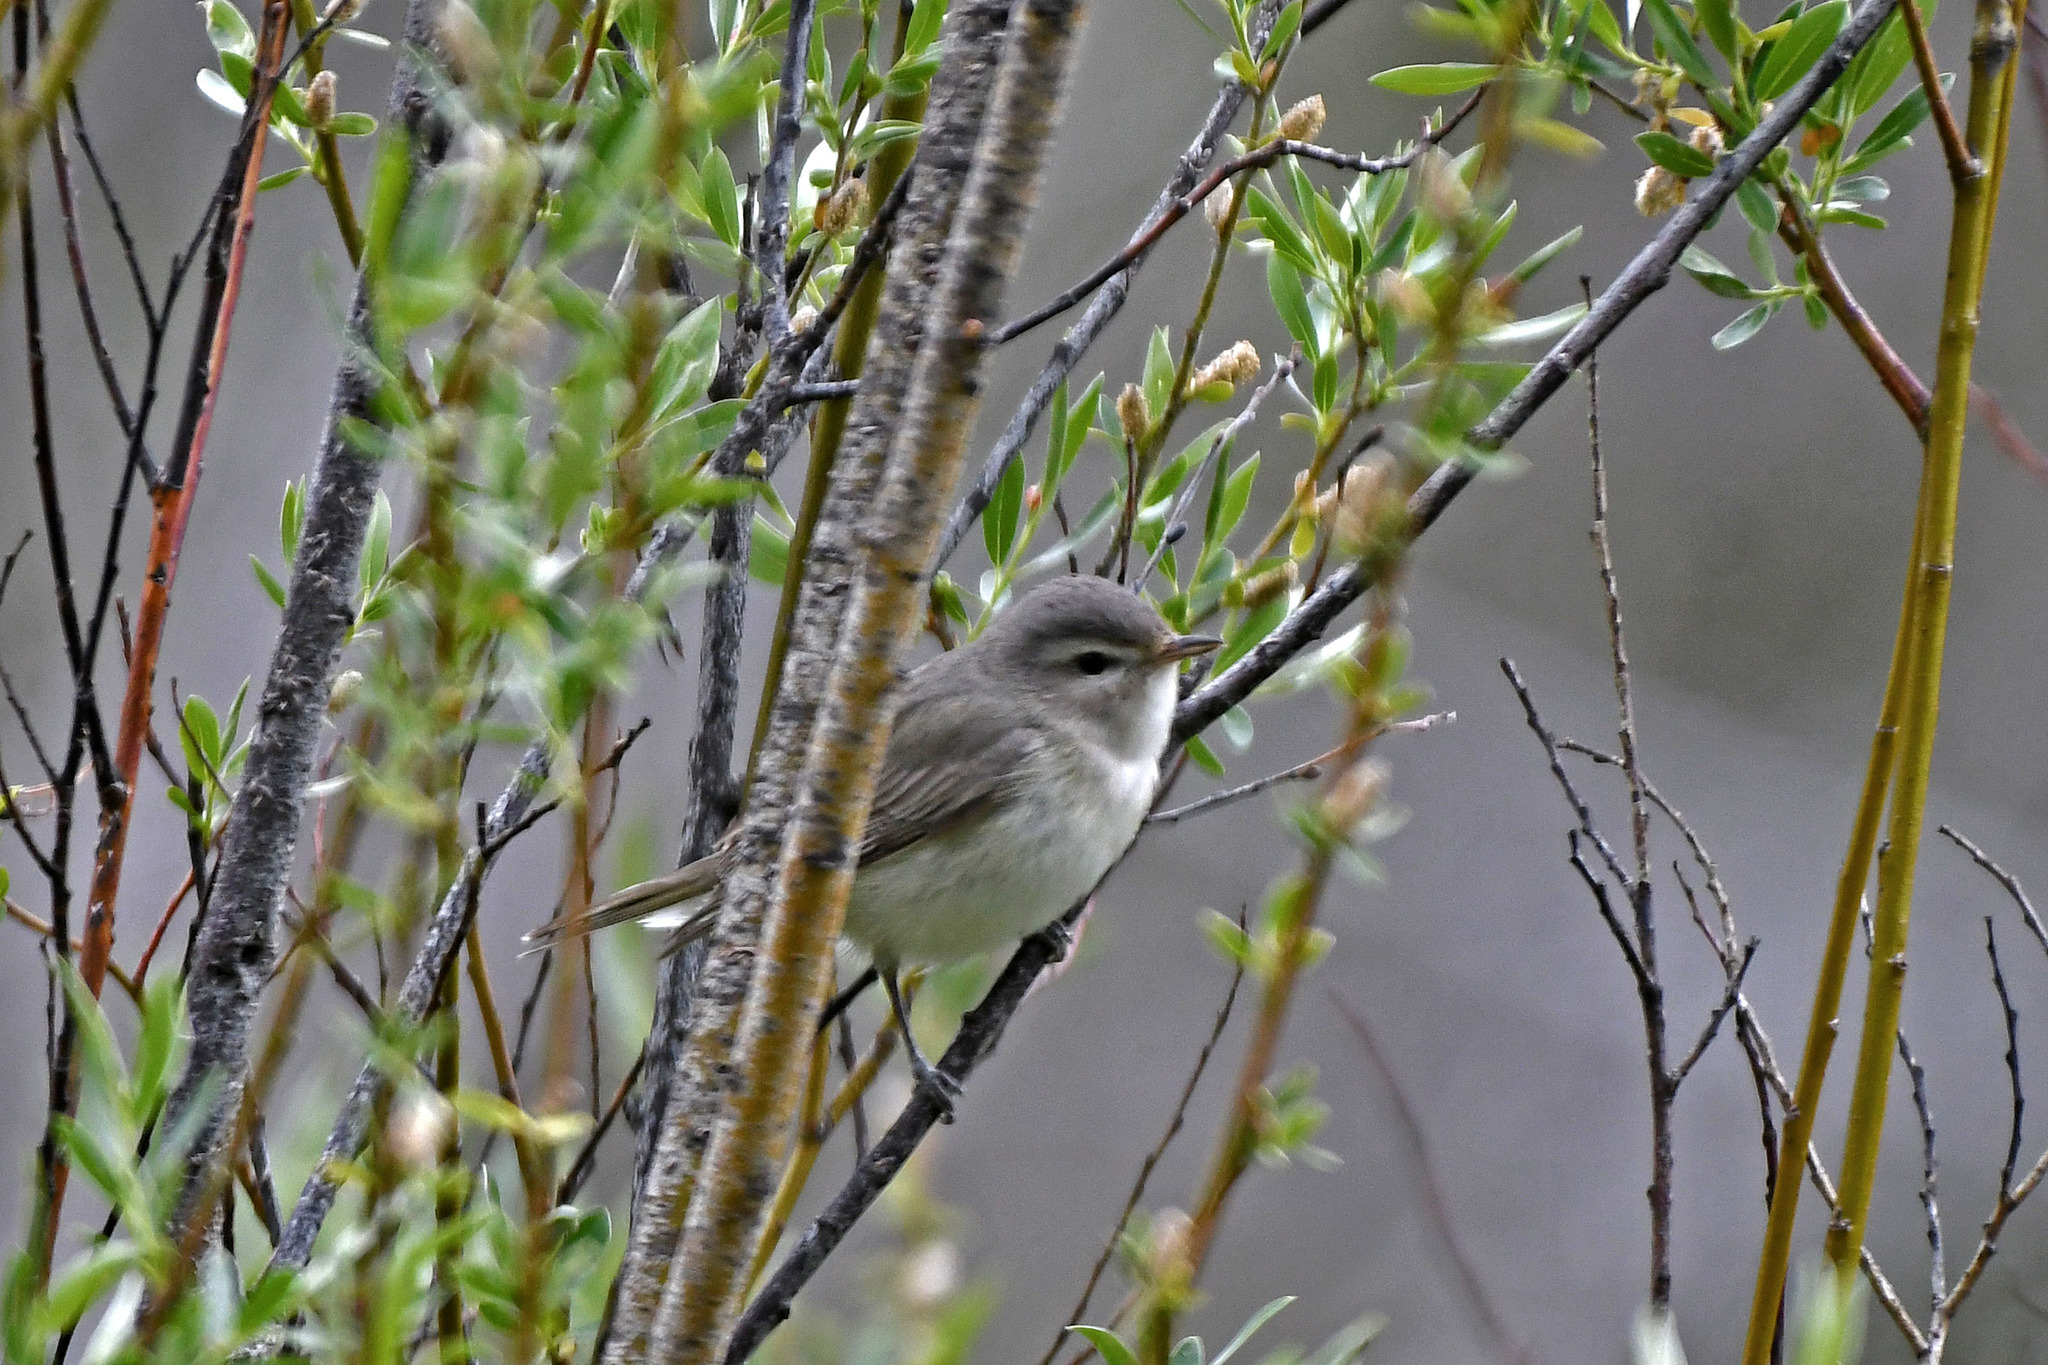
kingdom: Animalia
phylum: Chordata
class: Aves
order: Passeriformes
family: Vireonidae
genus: Vireo
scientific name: Vireo gilvus
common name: Warbling vireo
